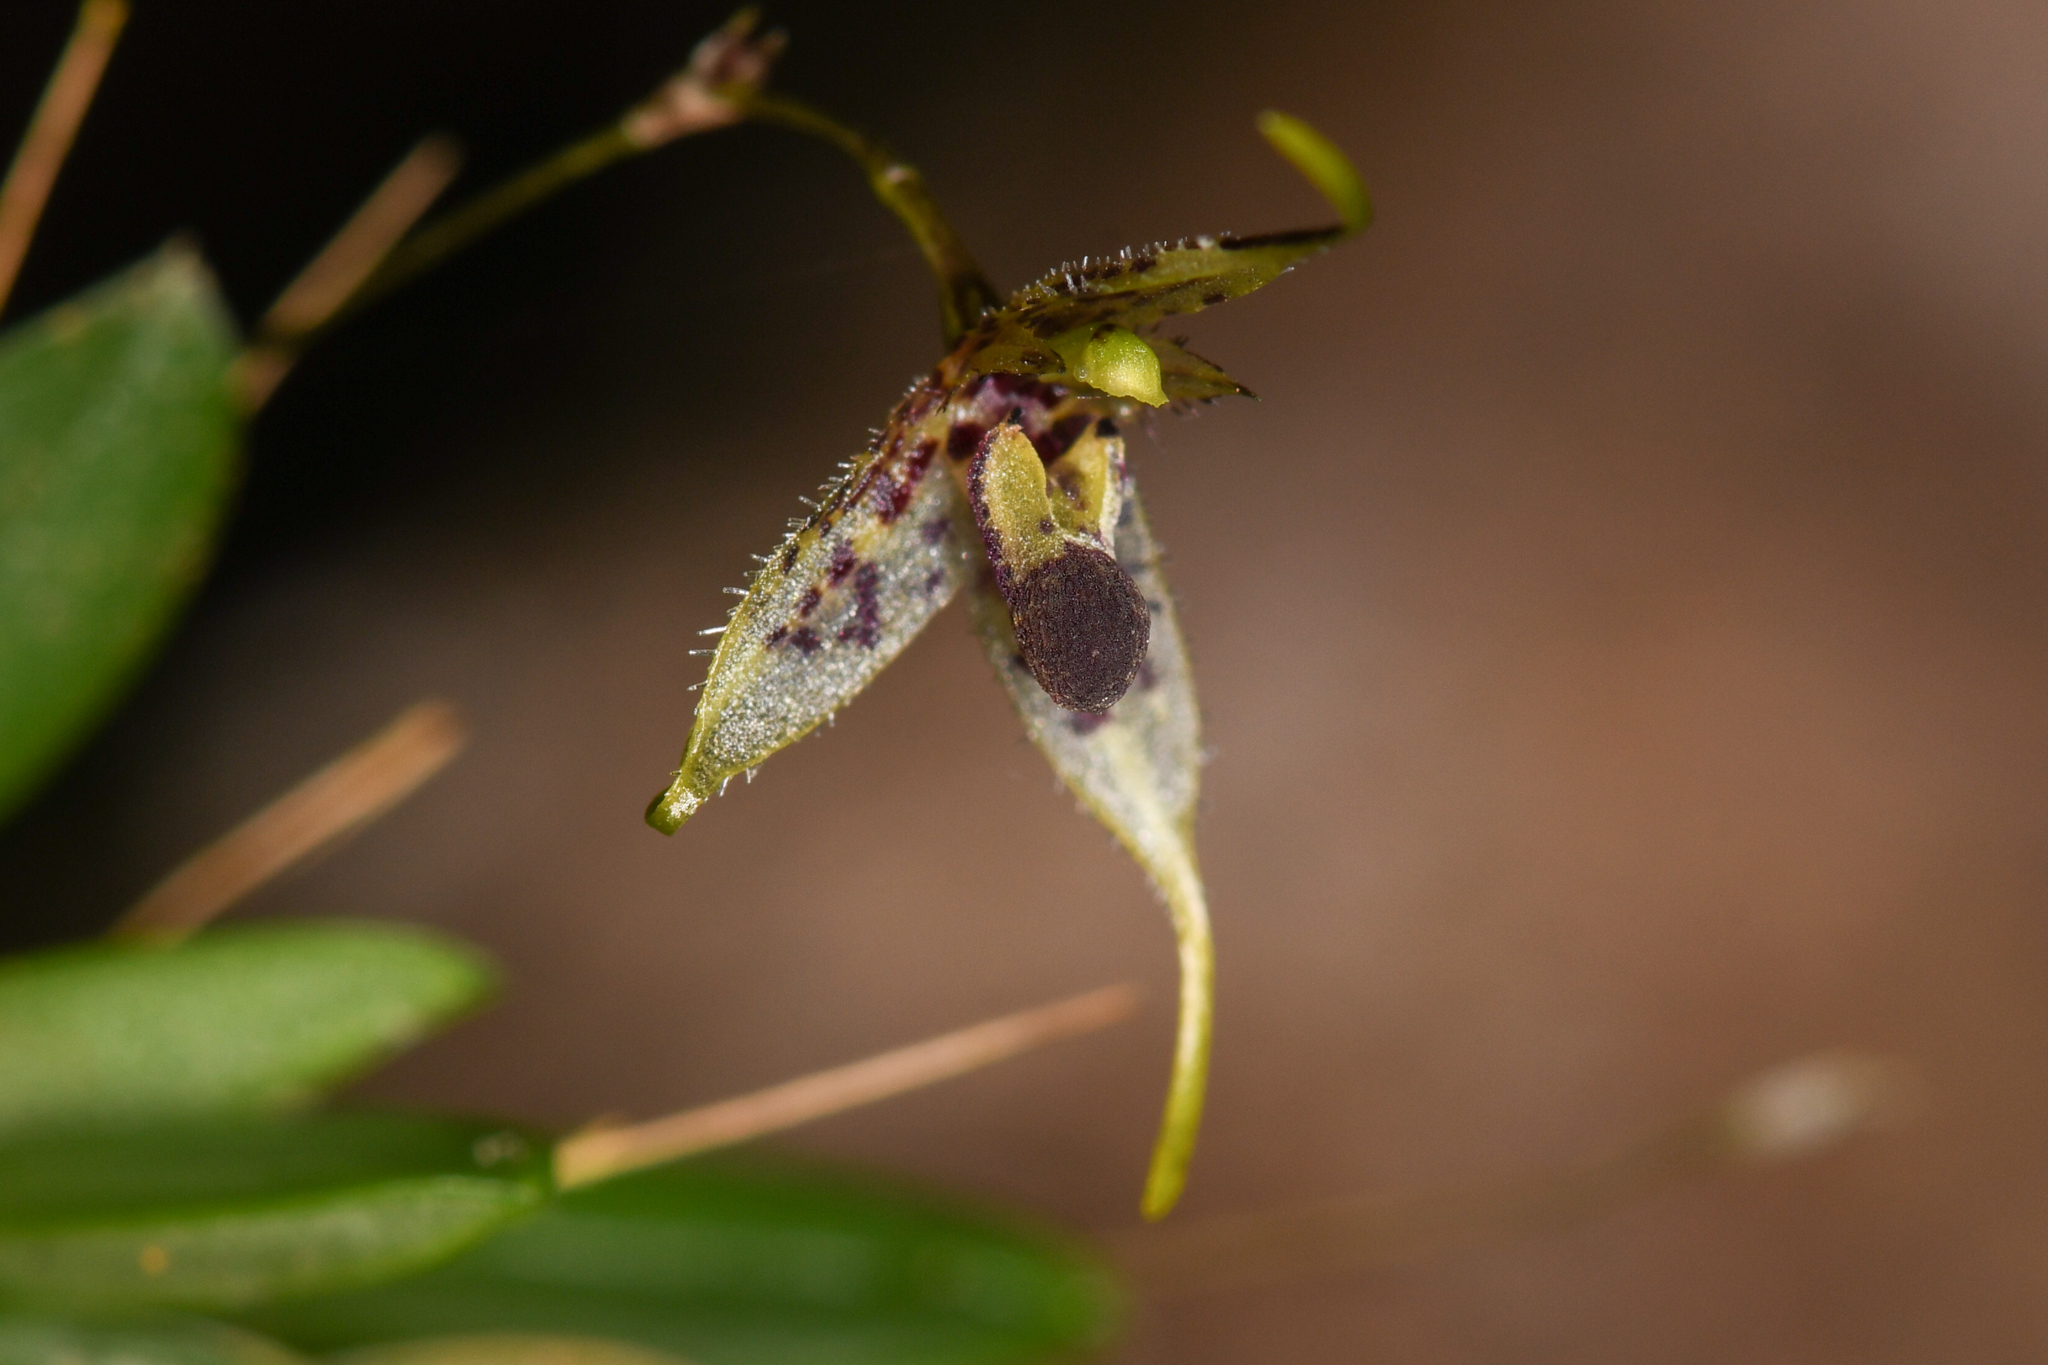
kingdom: Plantae
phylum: Tracheophyta
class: Liliopsida
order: Asparagales
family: Orchidaceae
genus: Muscarella
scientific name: Muscarella strumosa
